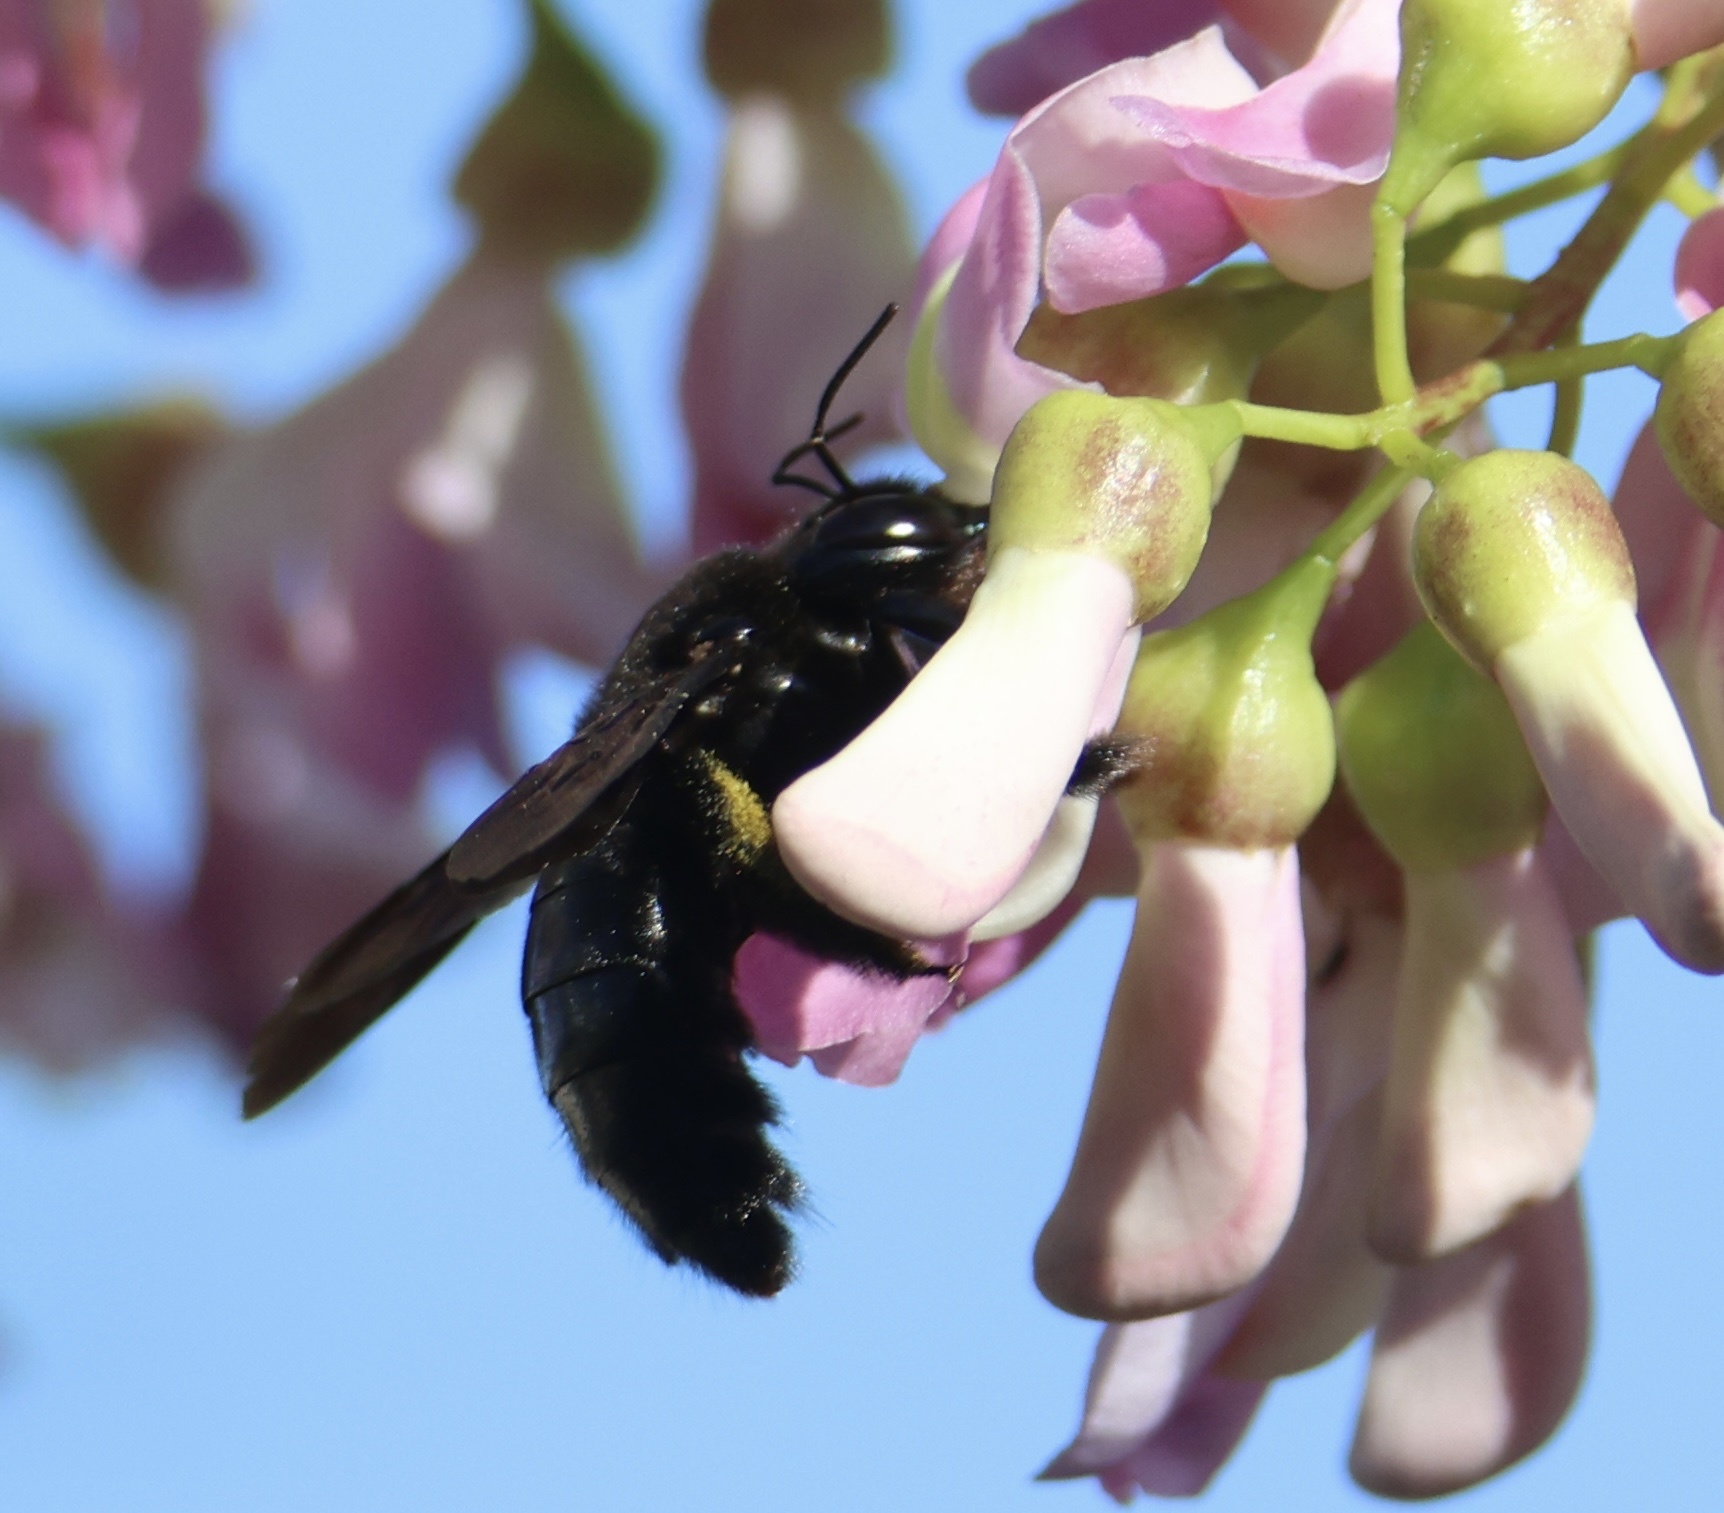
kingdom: Animalia
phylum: Arthropoda
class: Insecta
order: Hymenoptera
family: Apidae
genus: Xylocopa
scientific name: Xylocopa mordax
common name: Antillean carpenter bee
